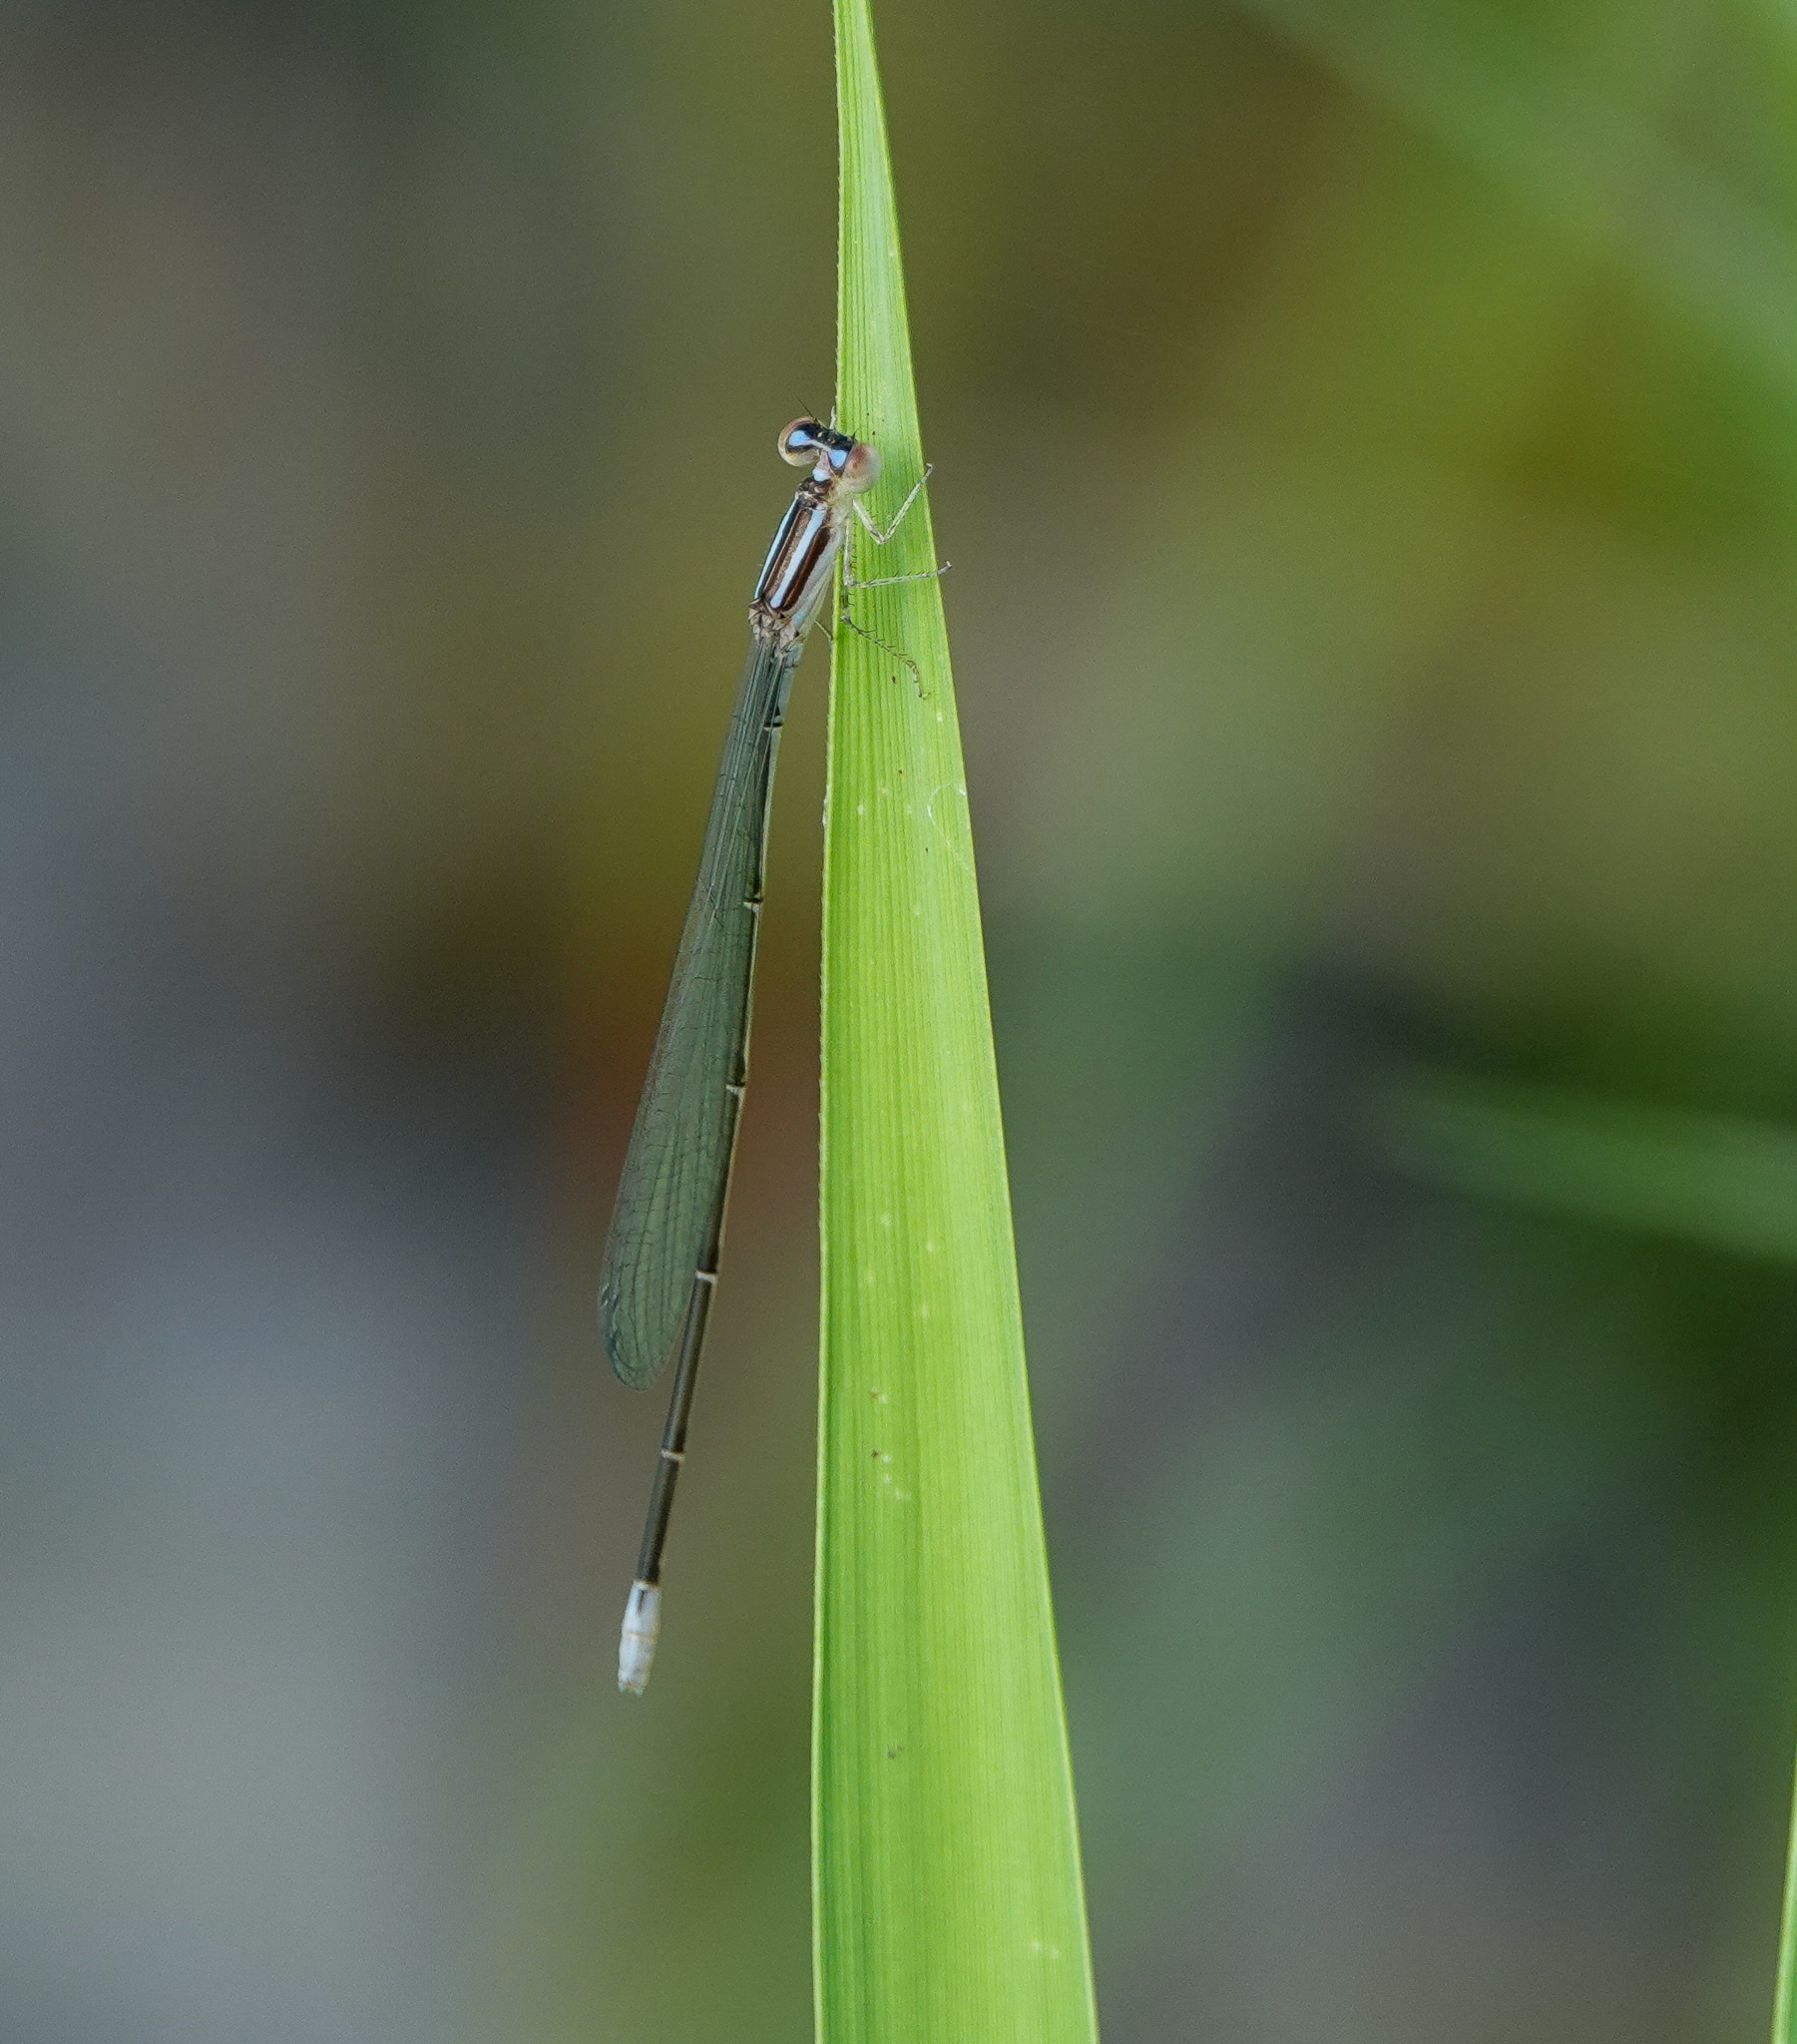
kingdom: Animalia
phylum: Arthropoda
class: Insecta
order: Odonata
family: Coenagrionidae
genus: Aciagrion
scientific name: Aciagrion hisopa
